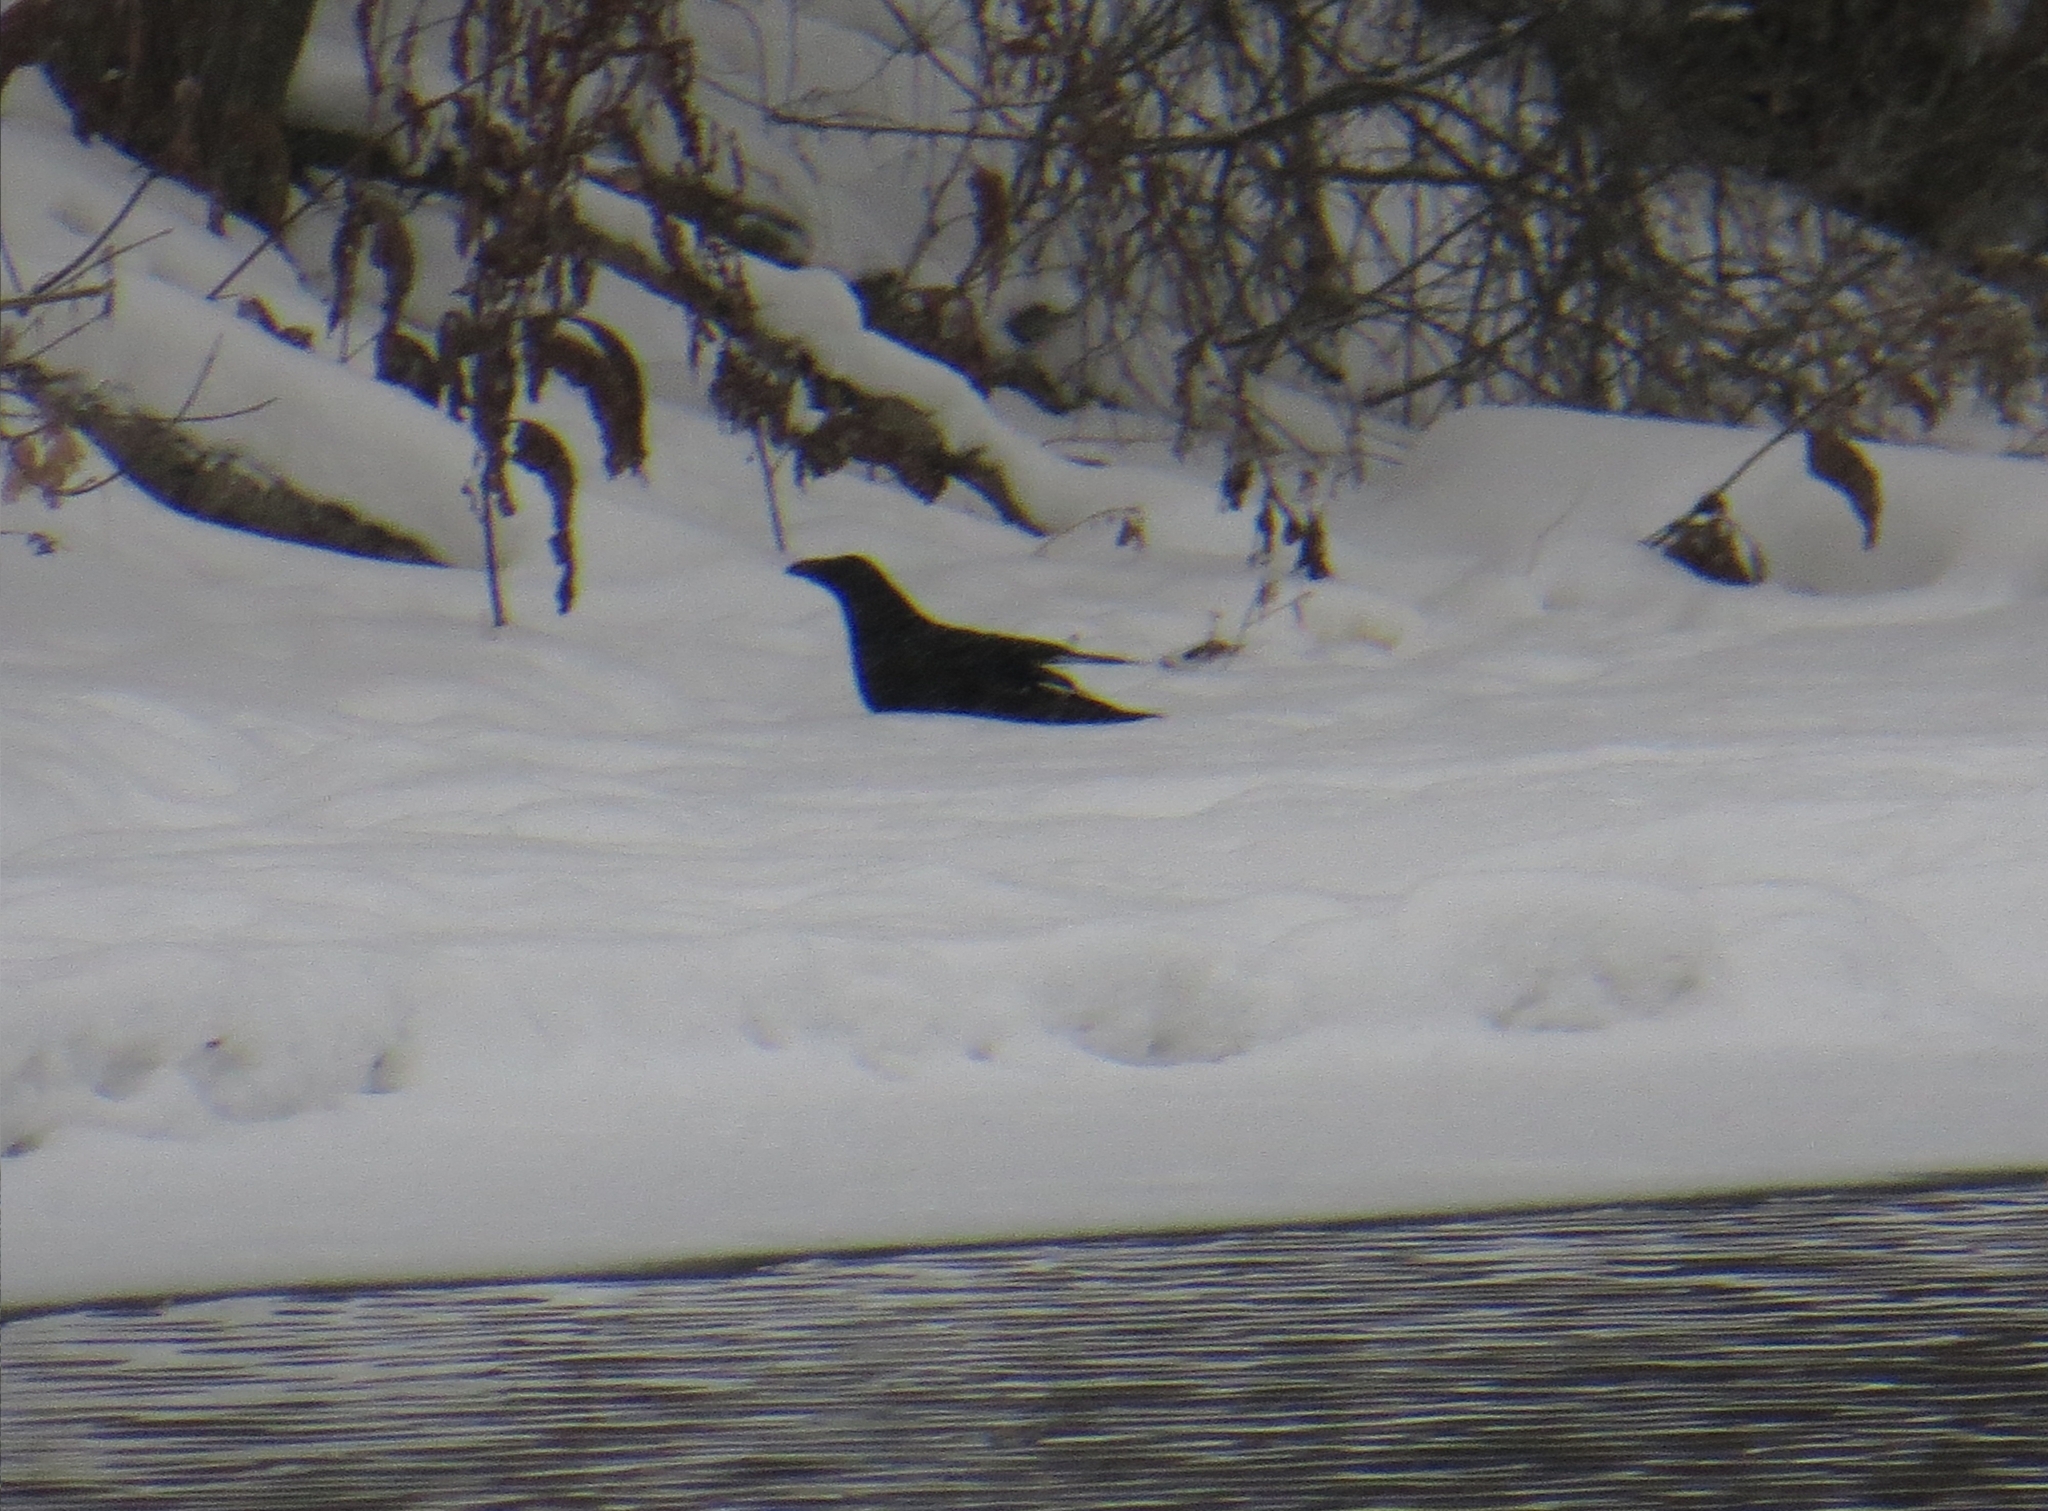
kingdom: Animalia
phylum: Chordata
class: Aves
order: Passeriformes
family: Corvidae
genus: Corvus
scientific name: Corvus corax
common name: Common raven
